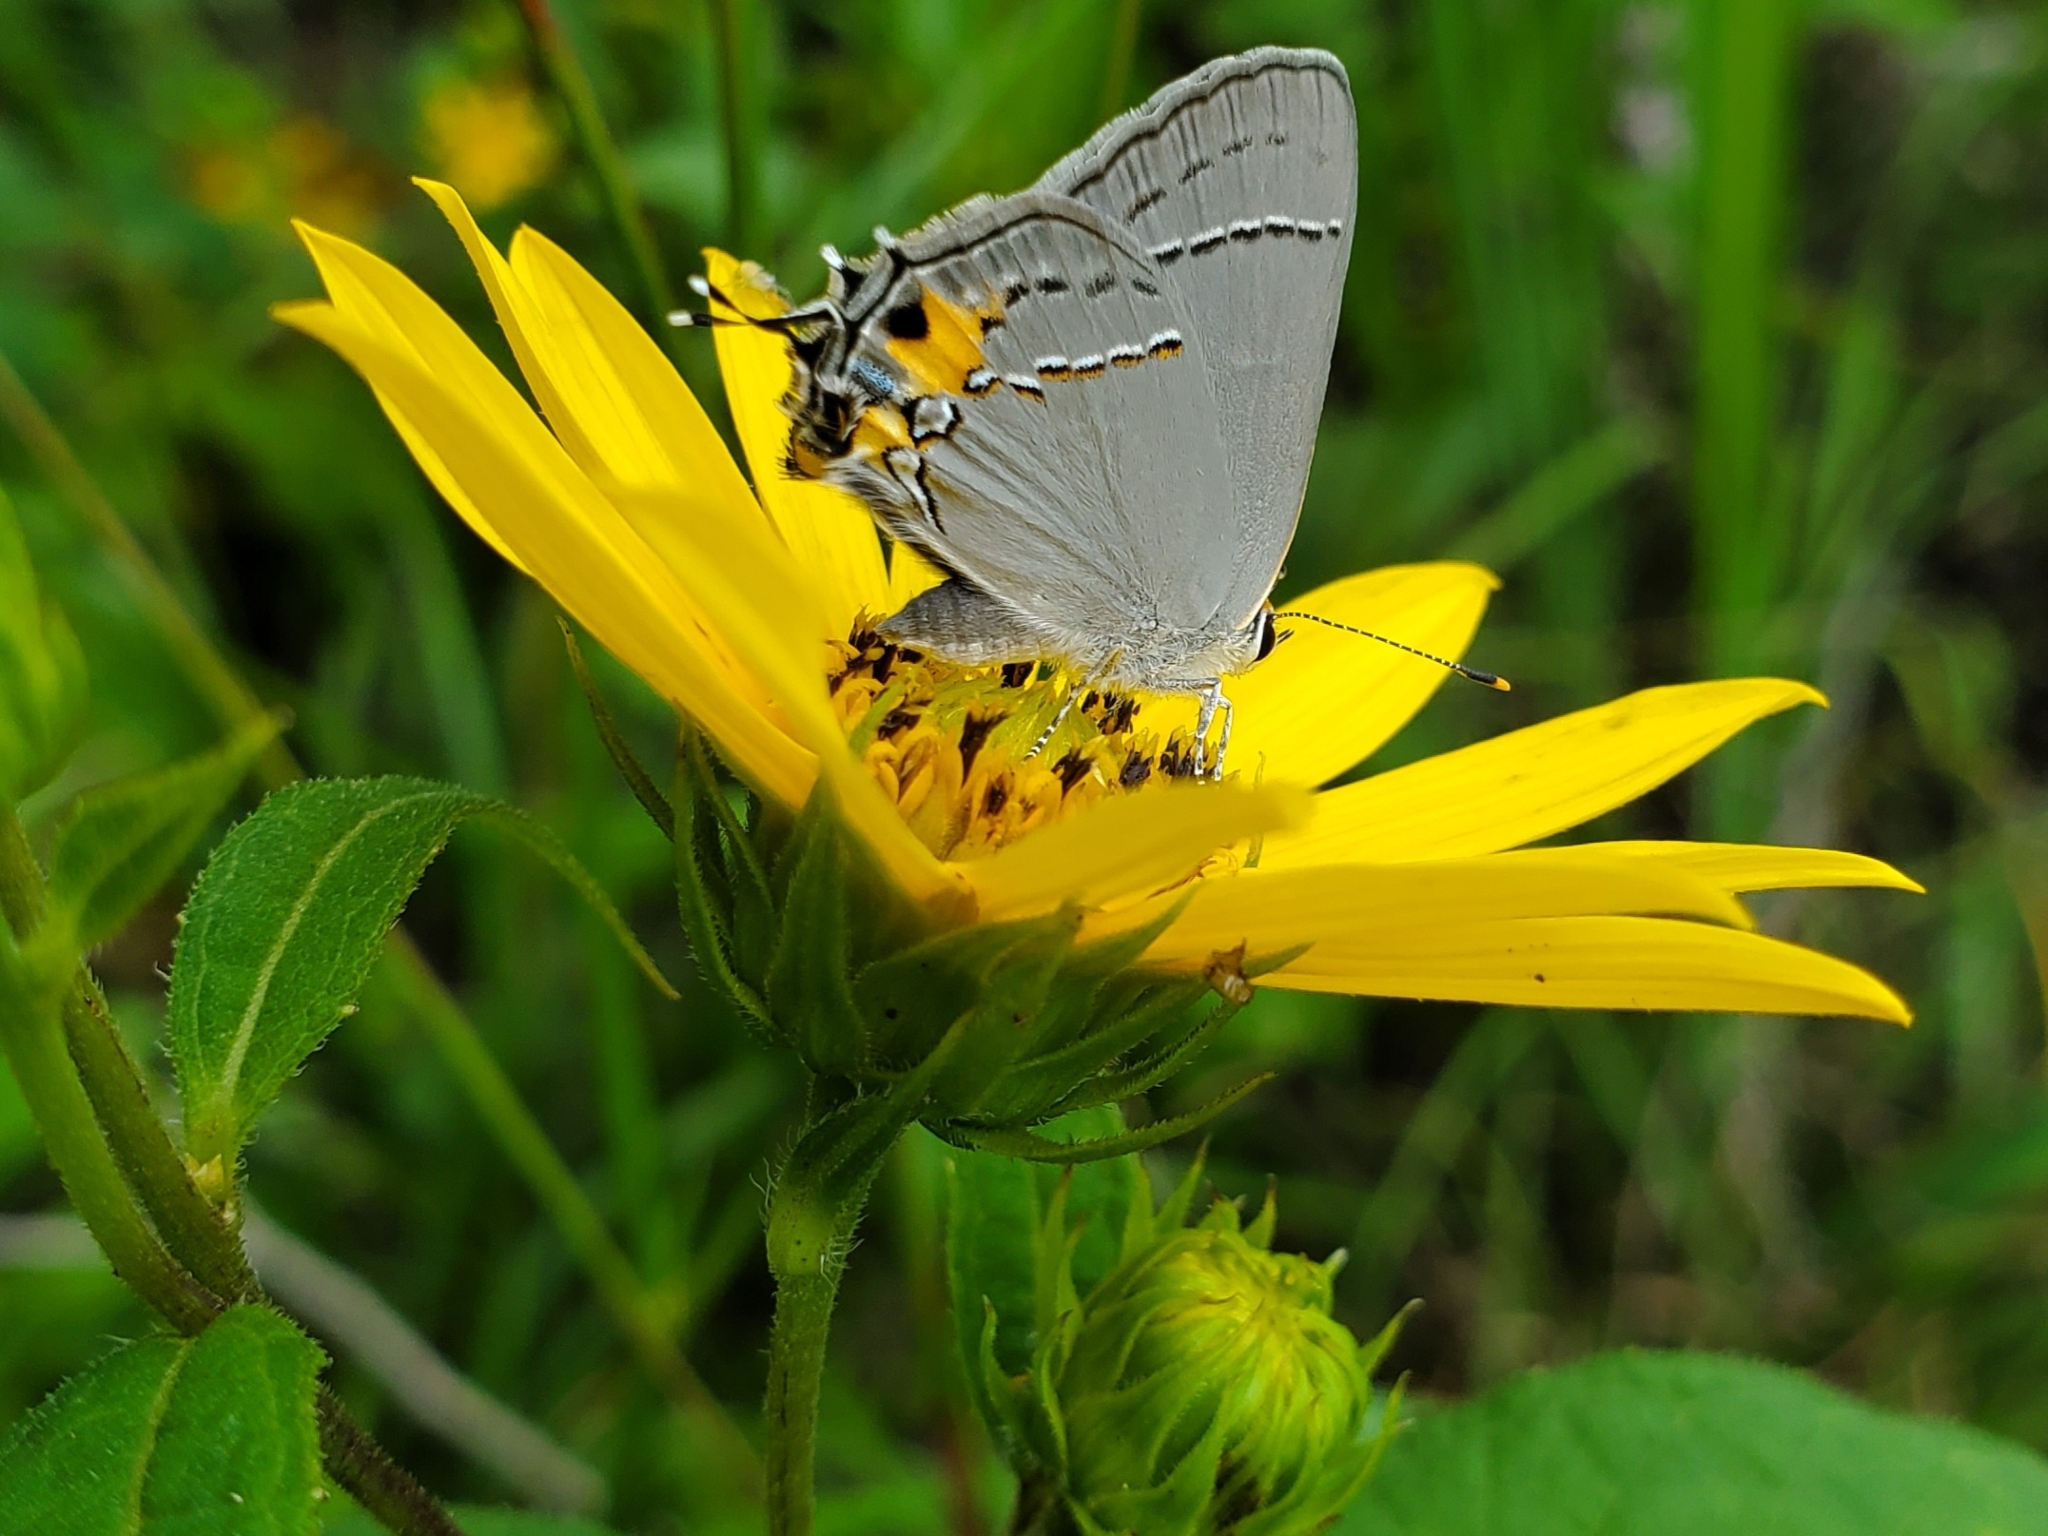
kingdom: Animalia
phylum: Arthropoda
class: Insecta
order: Lepidoptera
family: Lycaenidae
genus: Strymon
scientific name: Strymon melinus
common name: Gray hairstreak
